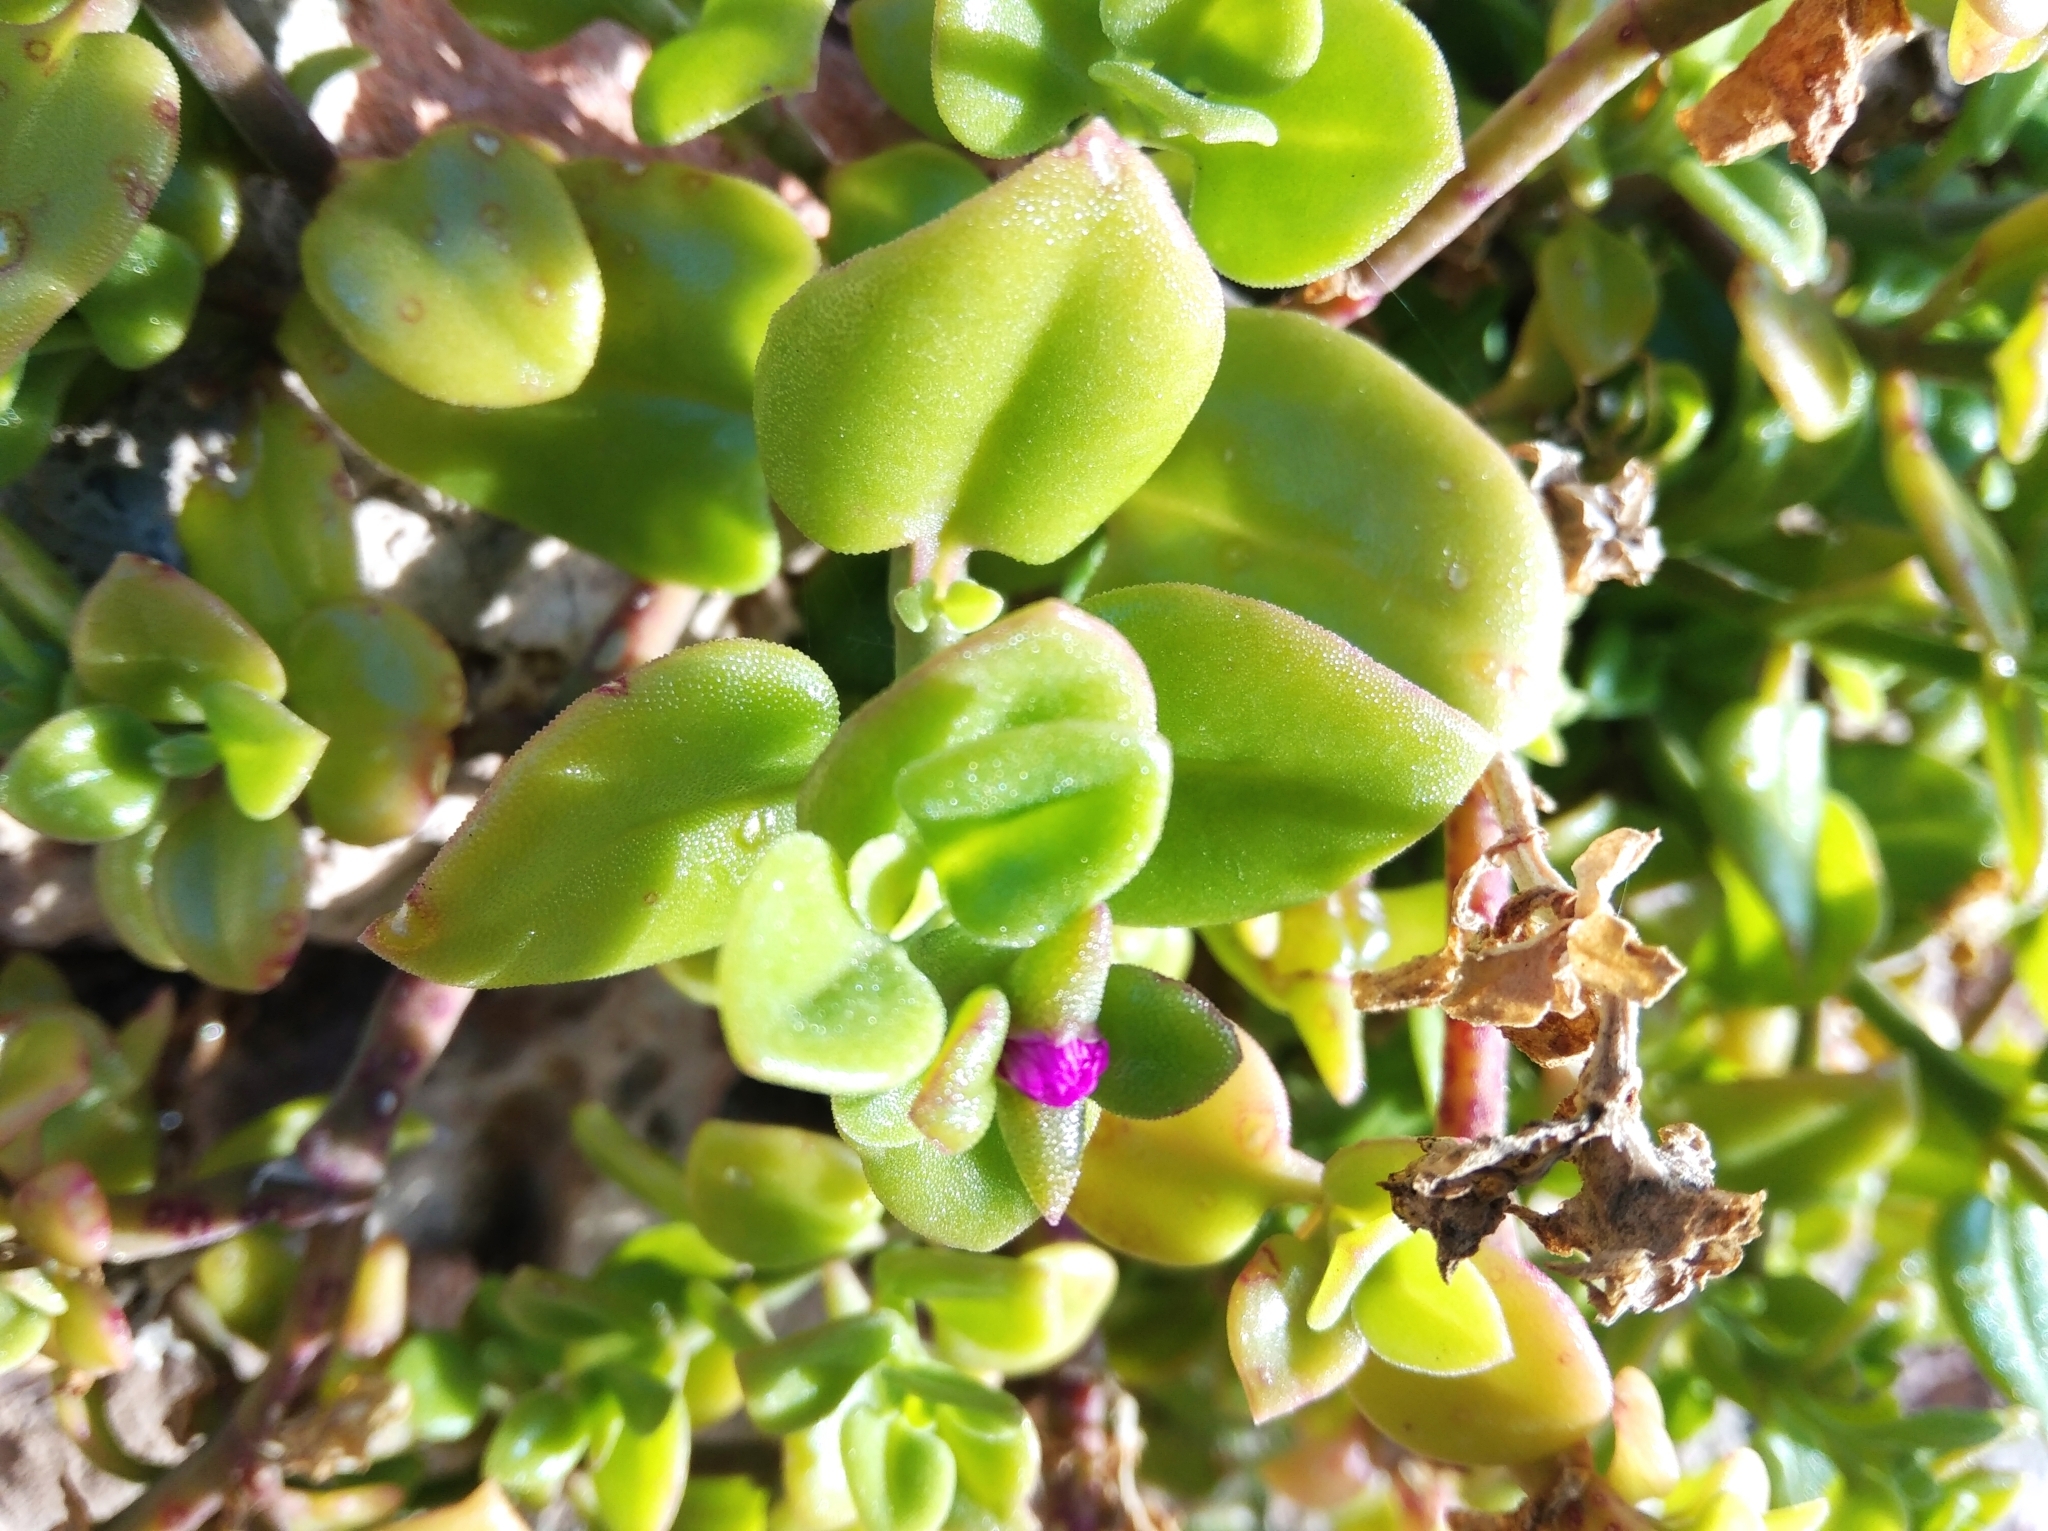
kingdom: Plantae
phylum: Tracheophyta
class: Magnoliopsida
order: Caryophyllales
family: Aizoaceae
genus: Mesembryanthemum
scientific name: Mesembryanthemum cordifolium
